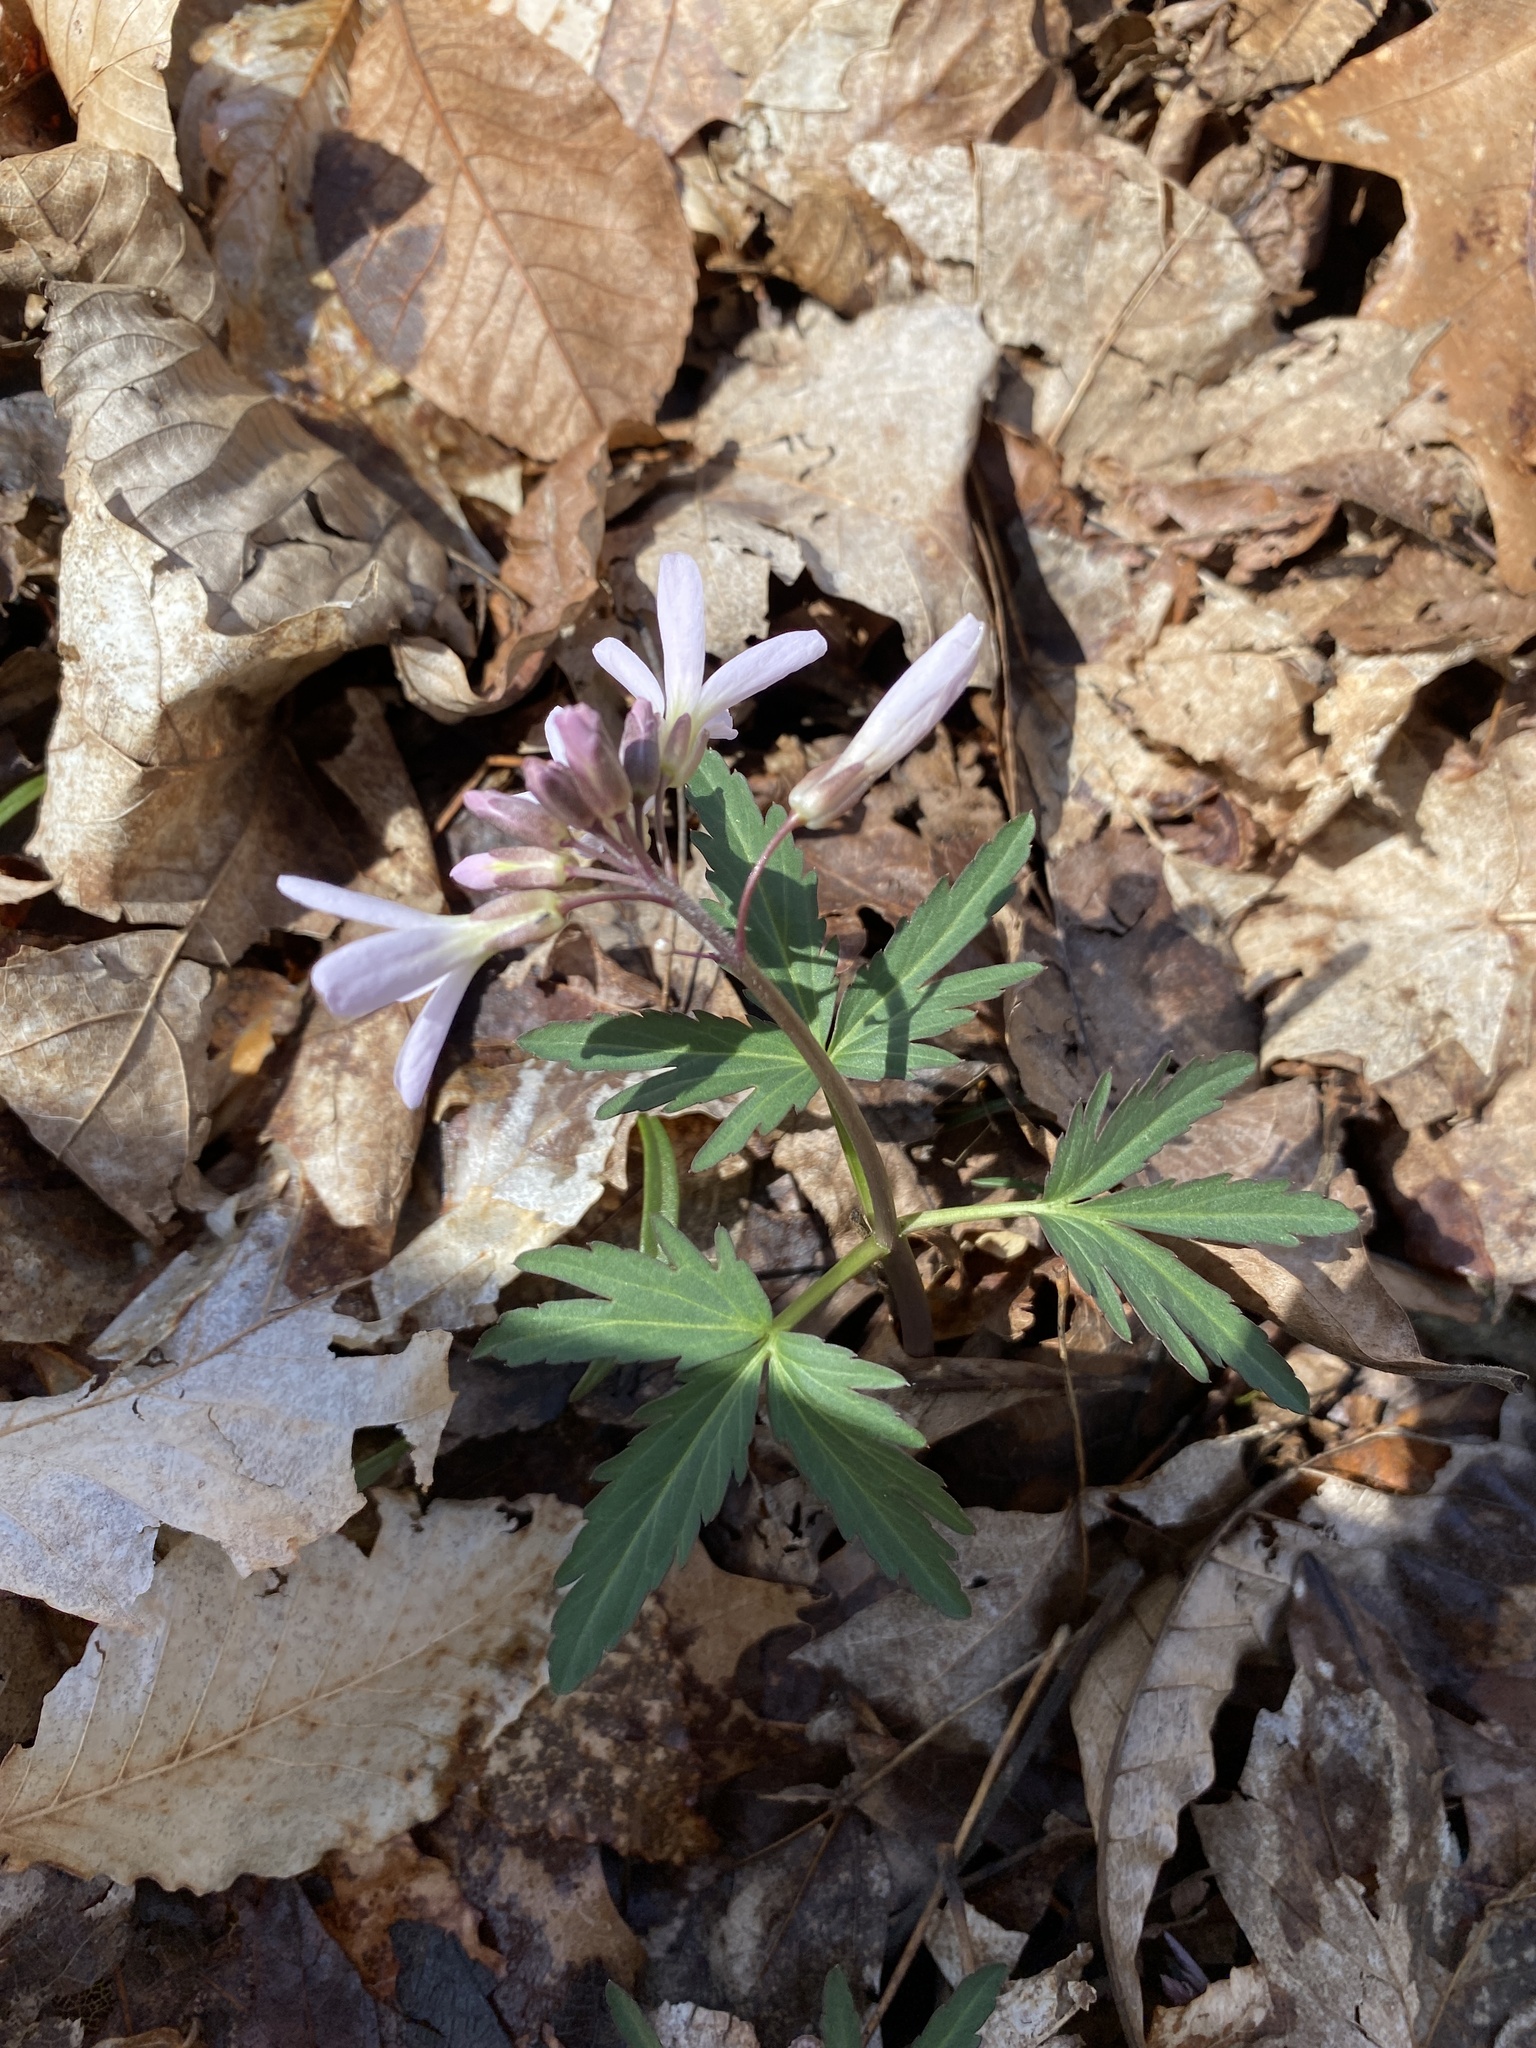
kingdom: Plantae
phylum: Tracheophyta
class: Magnoliopsida
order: Brassicales
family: Brassicaceae
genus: Cardamine
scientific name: Cardamine concatenata
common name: Cut-leaf toothcup
